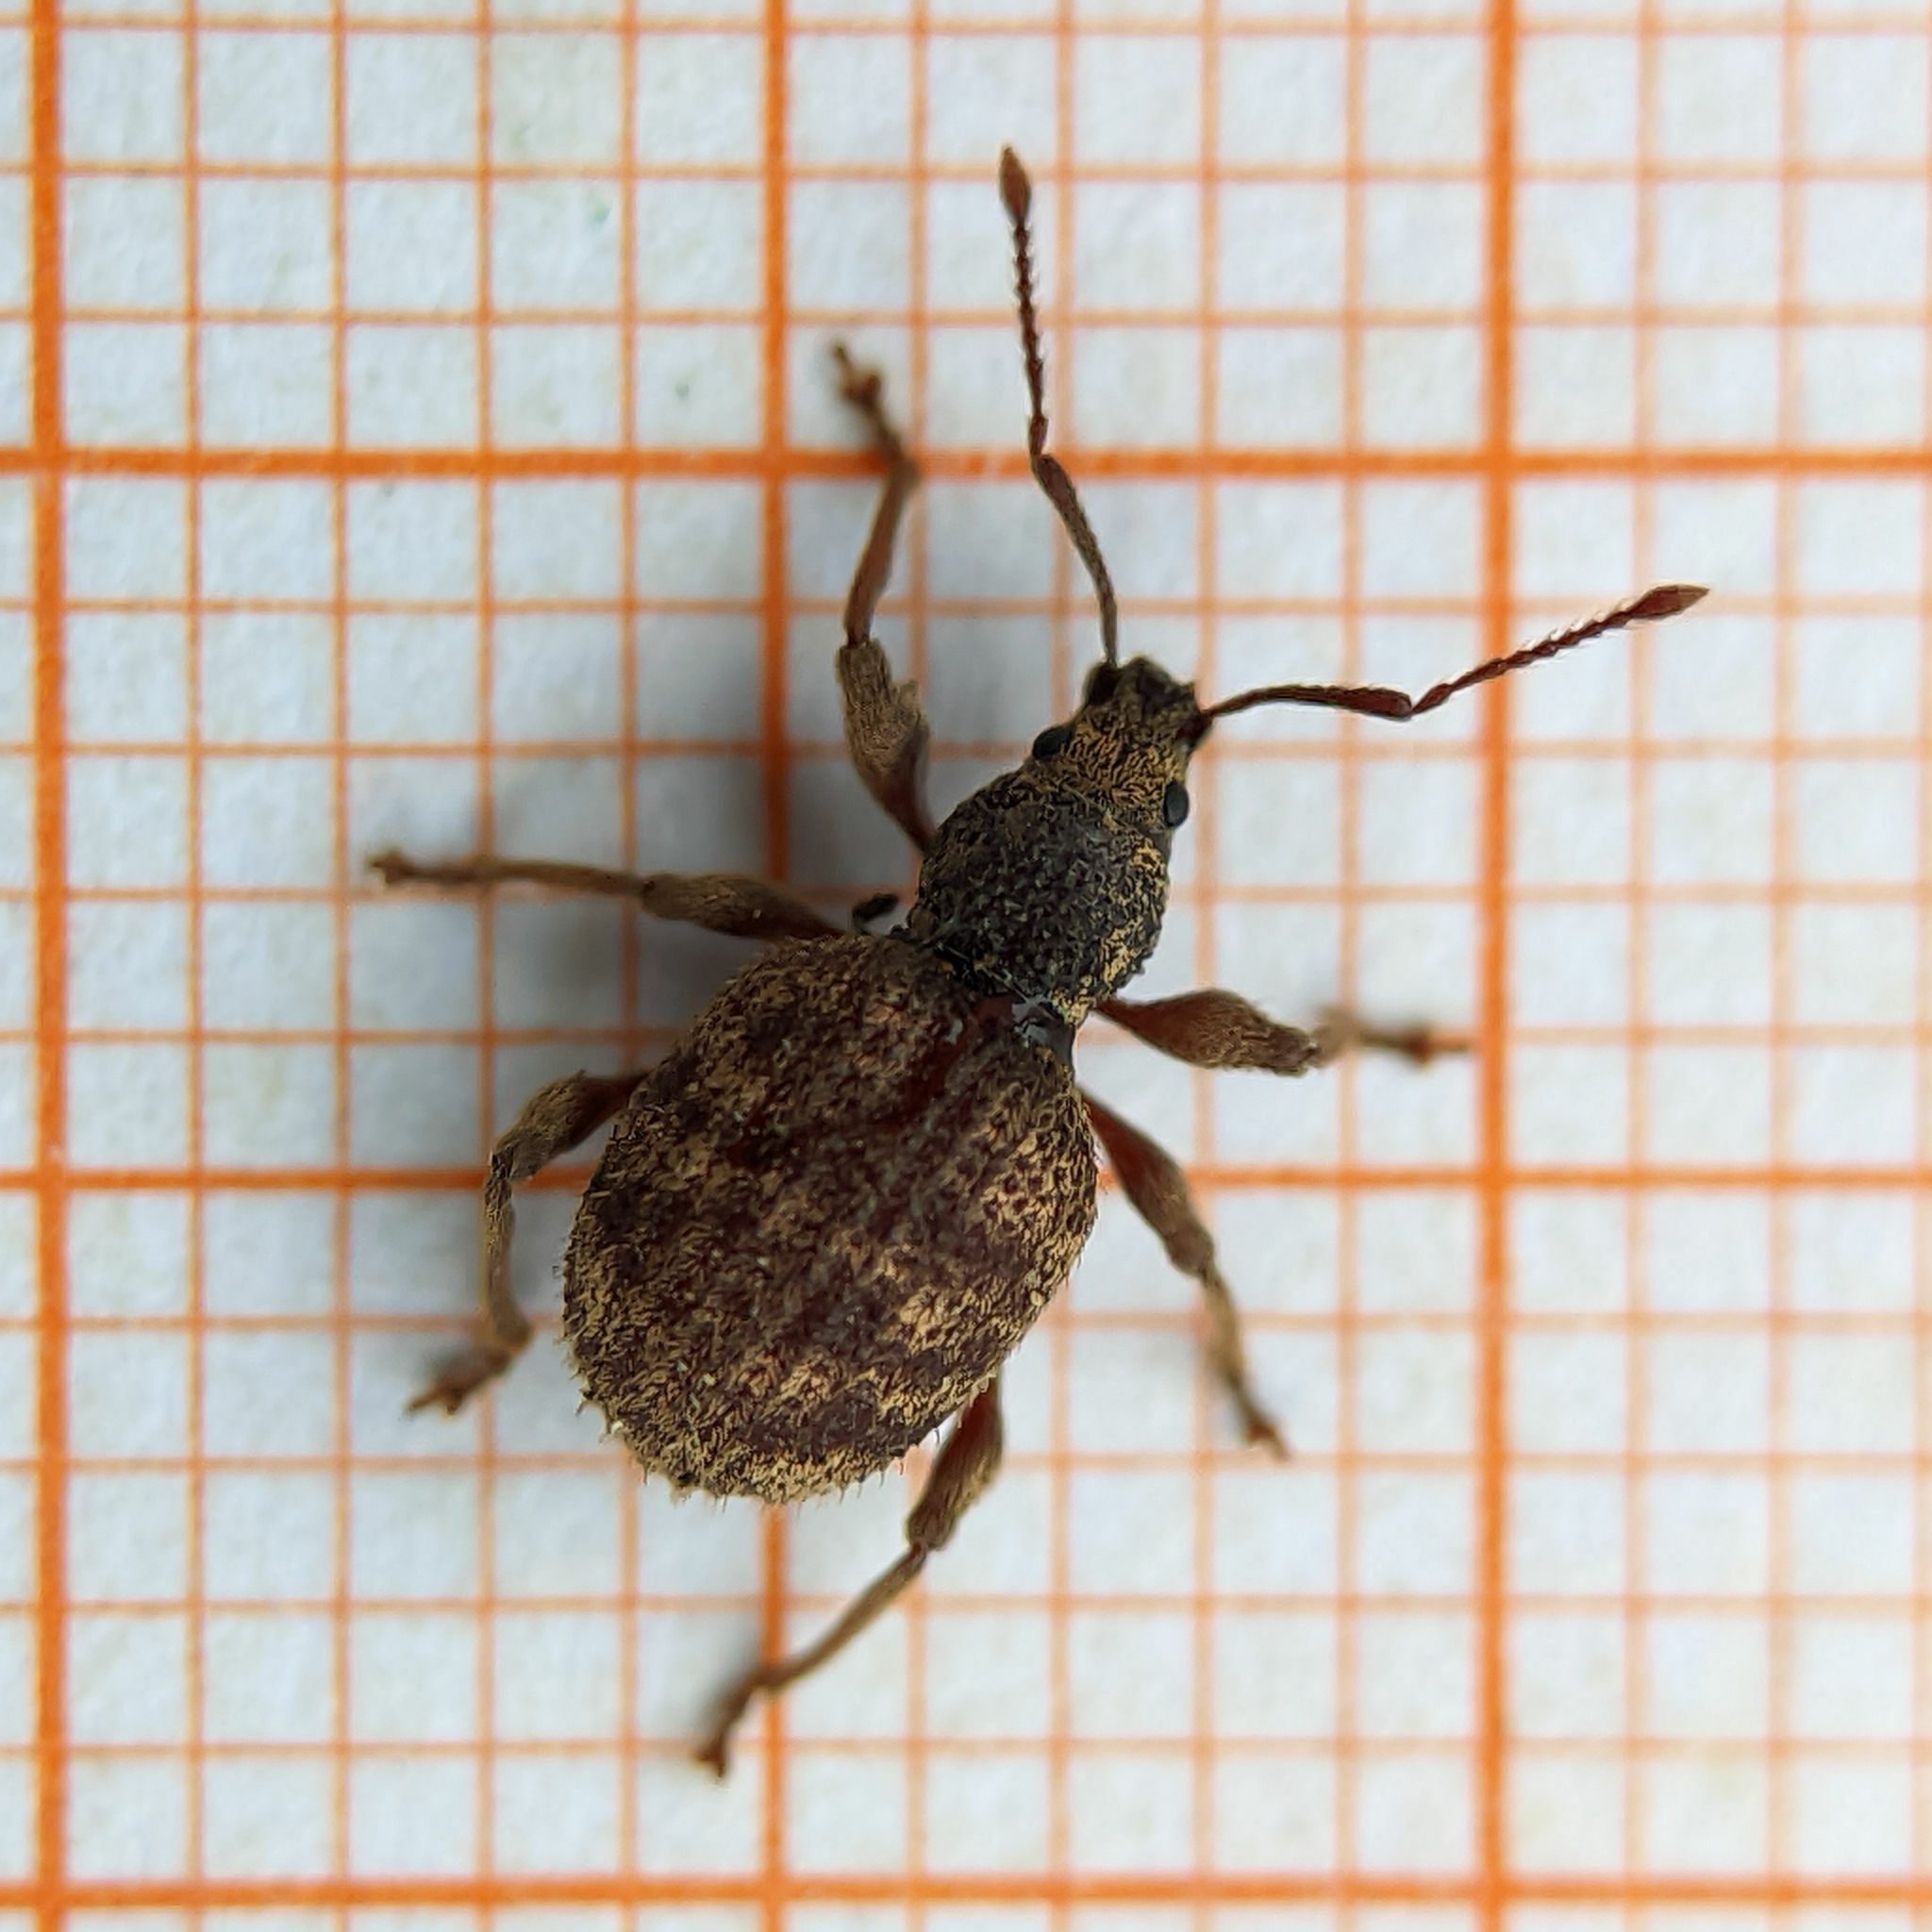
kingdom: Animalia
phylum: Arthropoda
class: Insecta
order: Coleoptera
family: Curculionidae
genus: Otiorhynchus
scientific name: Otiorhynchus crataegi
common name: Privet weevil
